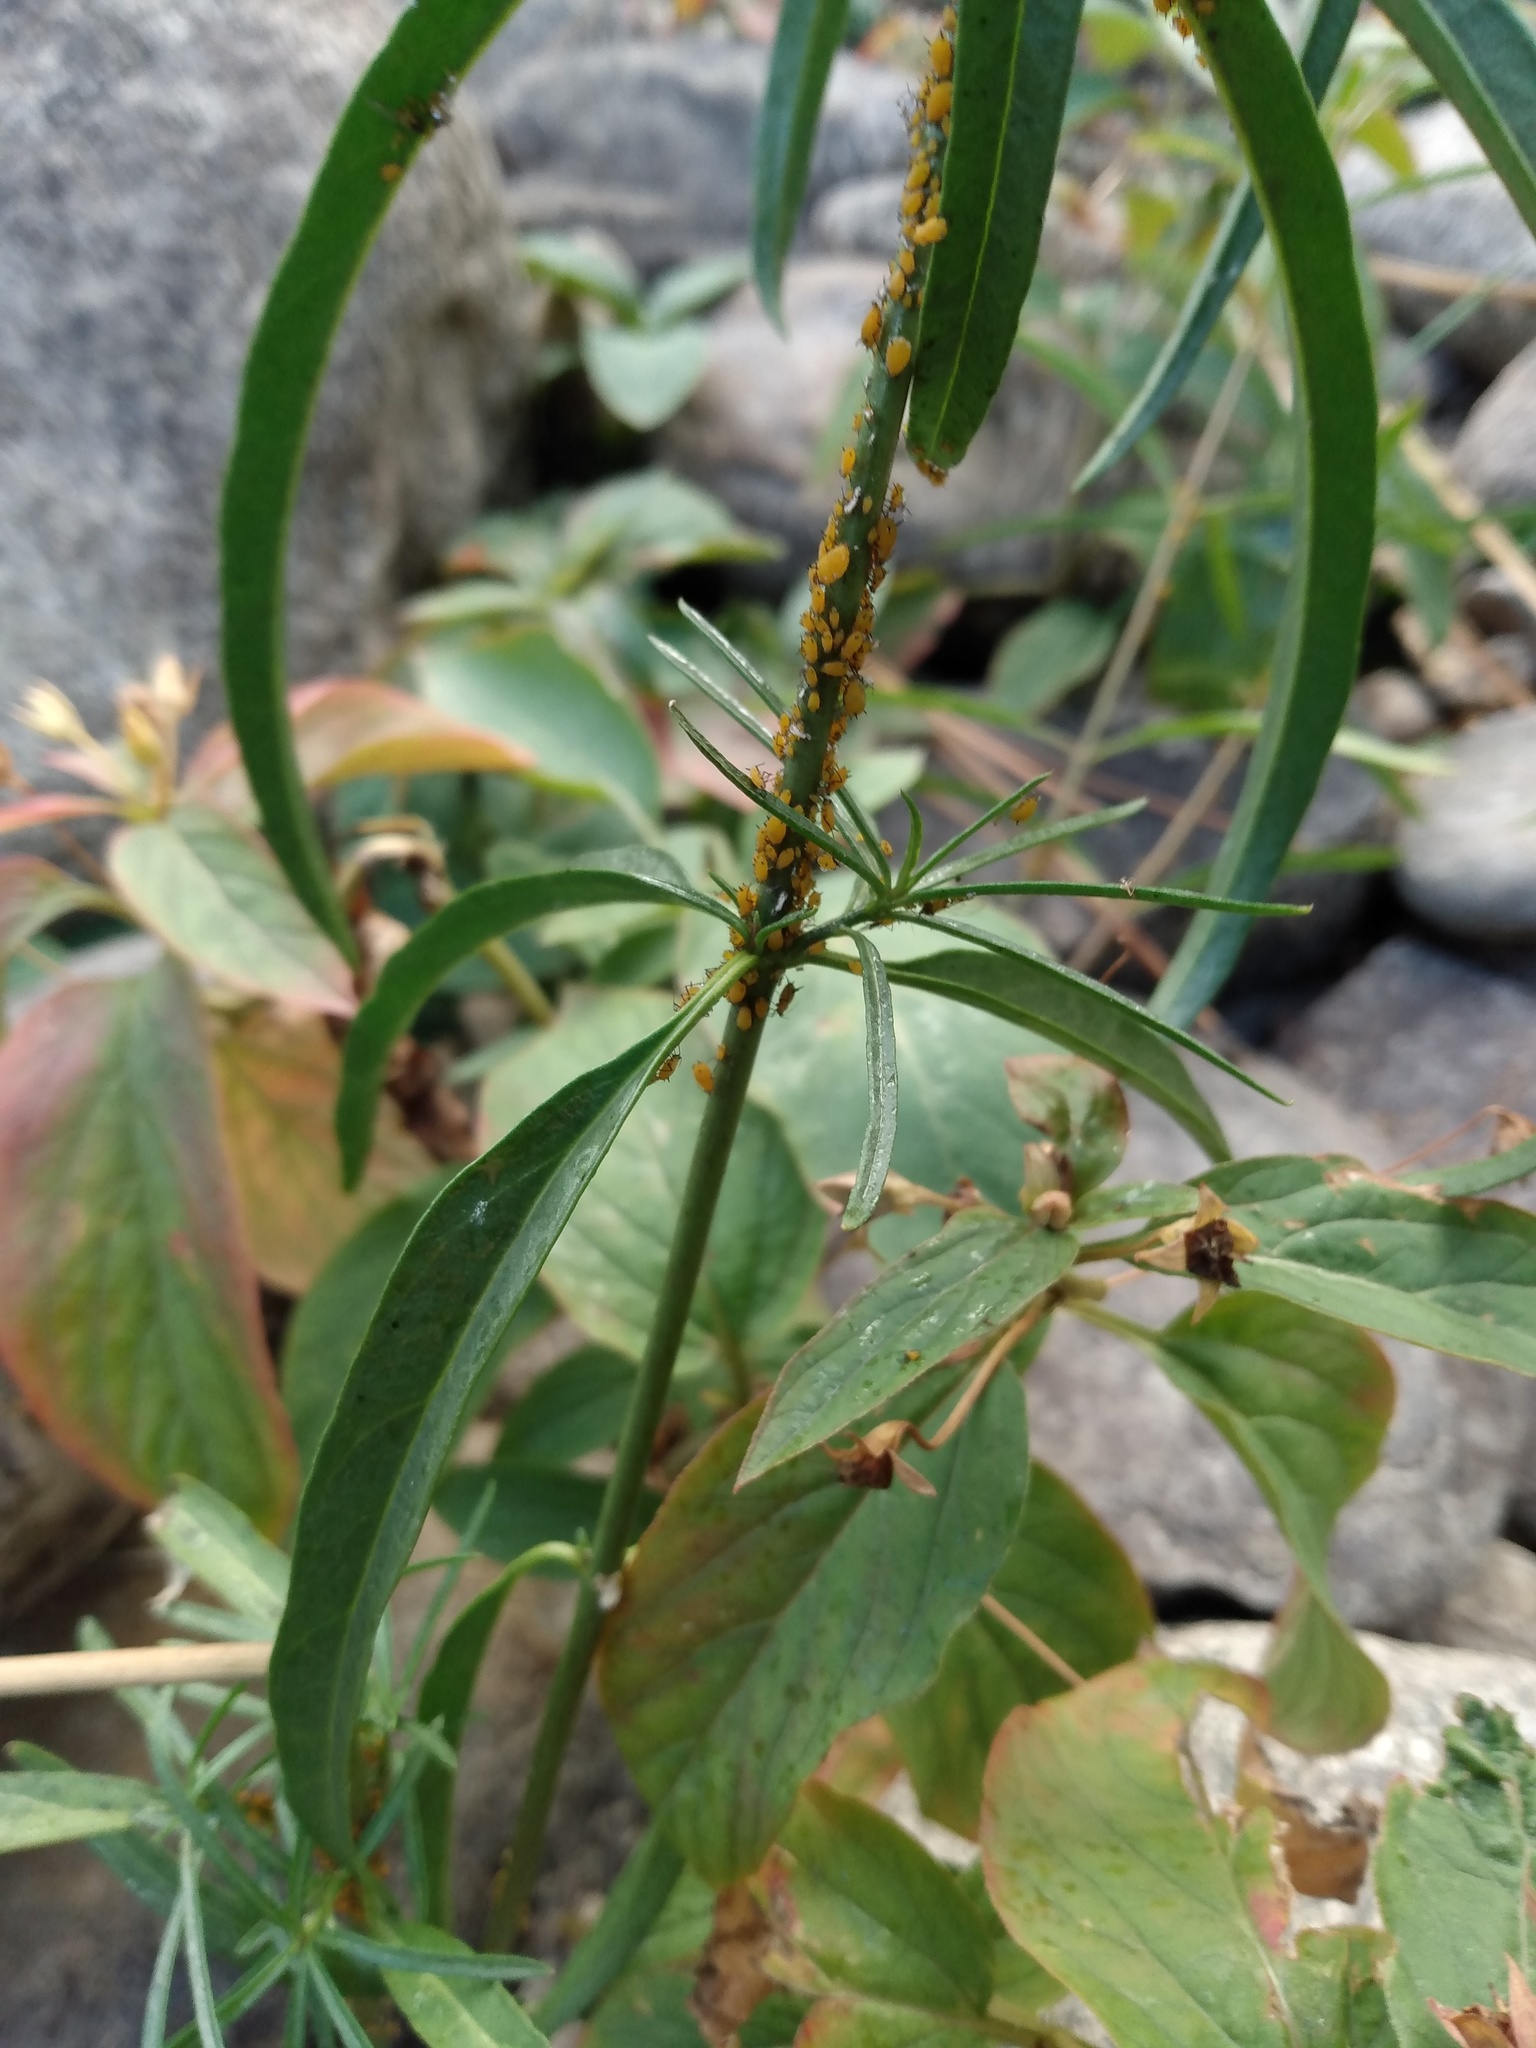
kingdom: Animalia
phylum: Arthropoda
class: Insecta
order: Hemiptera
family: Aphididae
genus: Aphis
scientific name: Aphis nerii
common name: Oleander aphid
